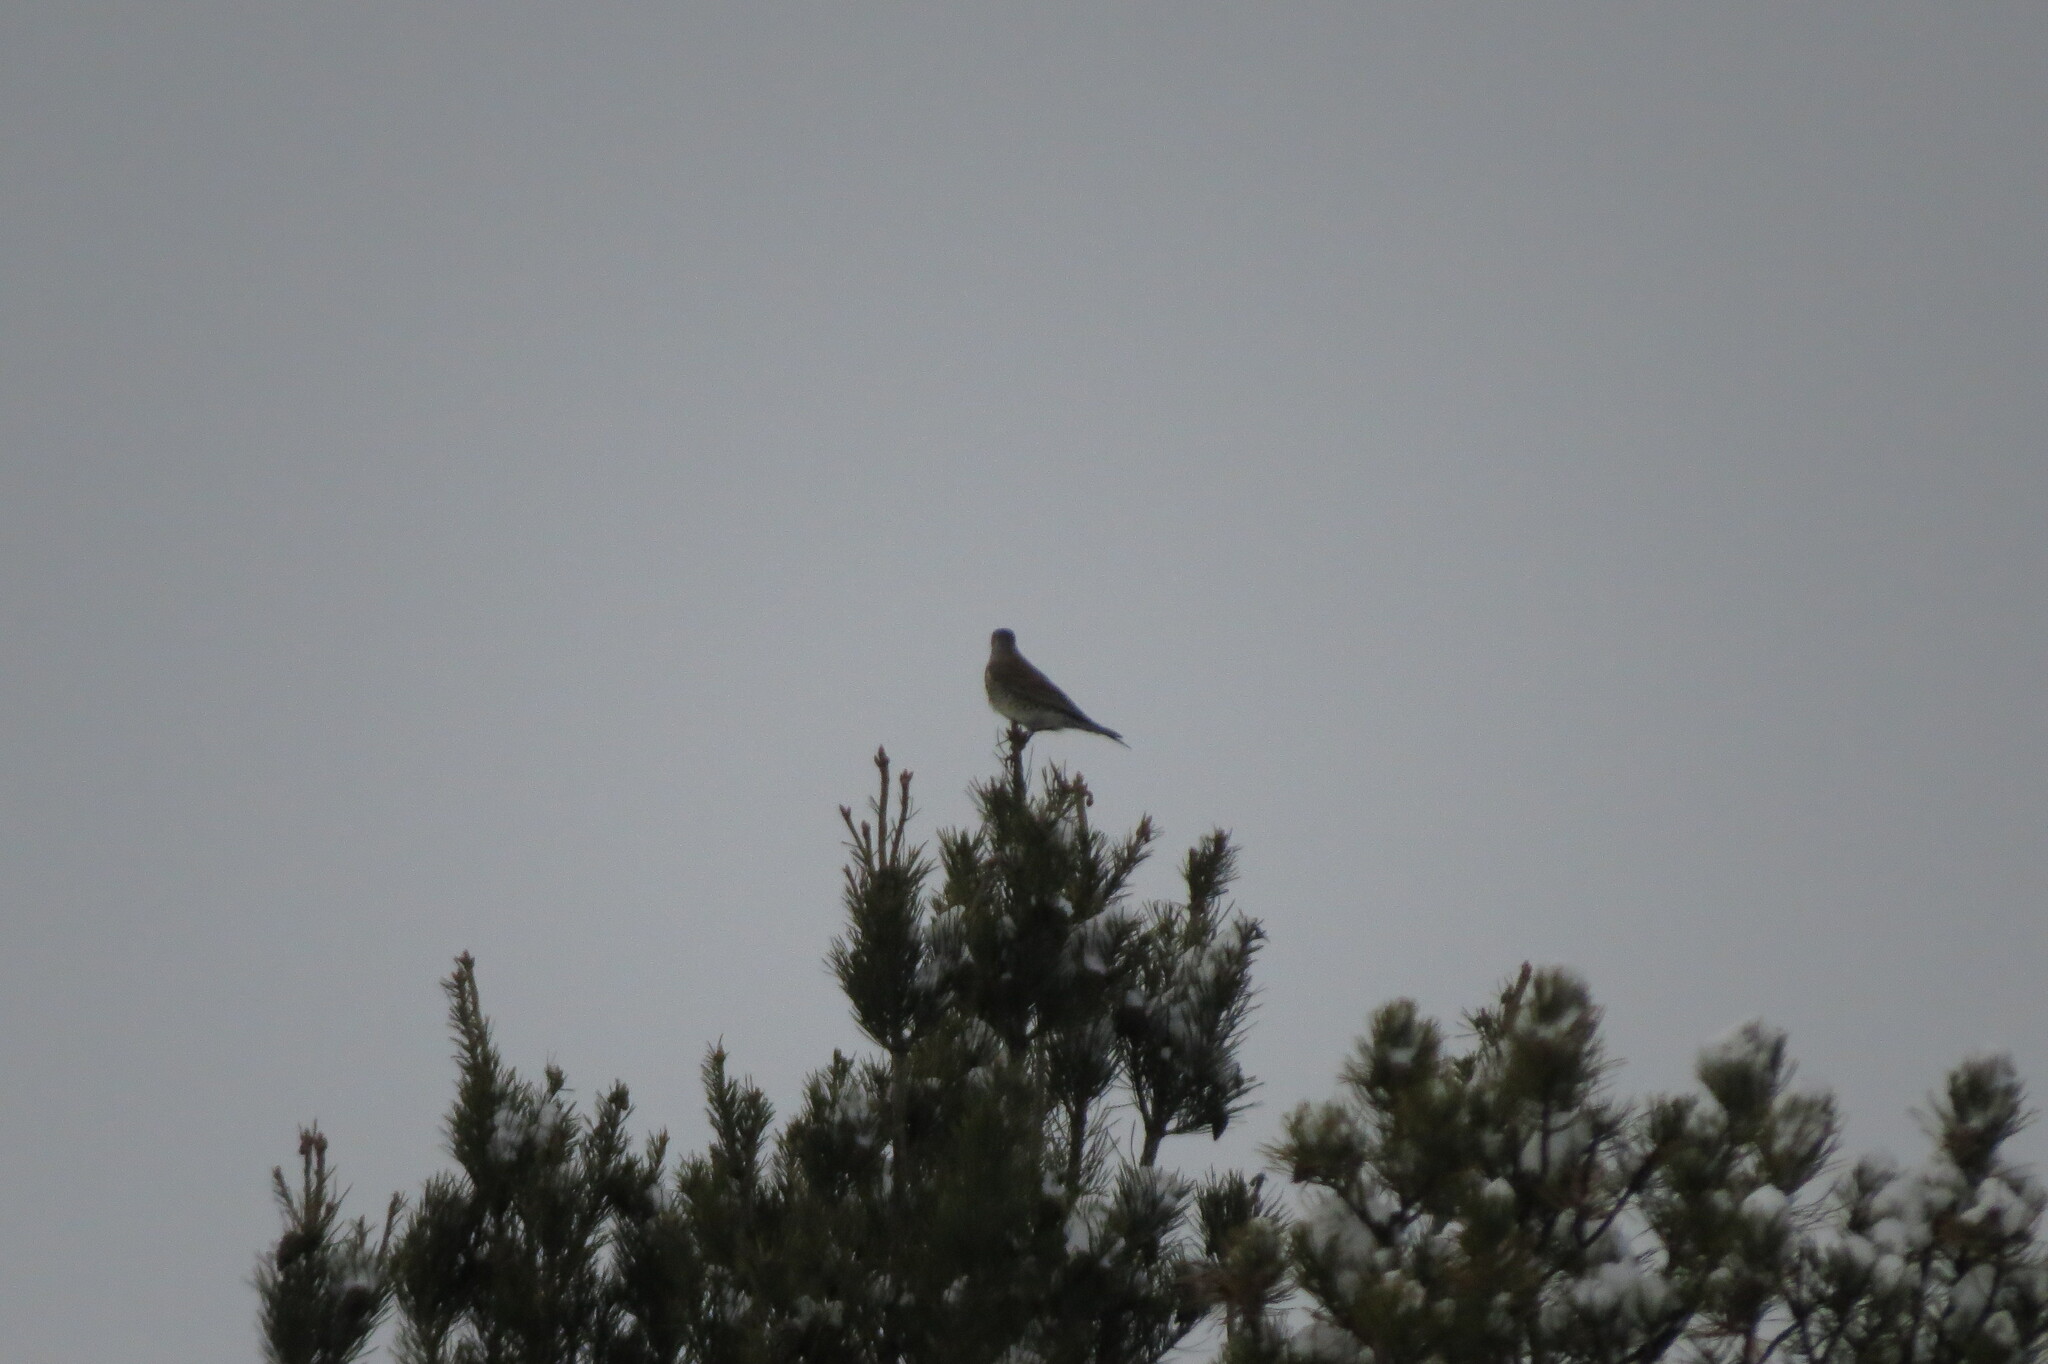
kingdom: Animalia
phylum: Chordata
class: Aves
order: Passeriformes
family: Turdidae
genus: Turdus
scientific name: Turdus pilaris
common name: Fieldfare
